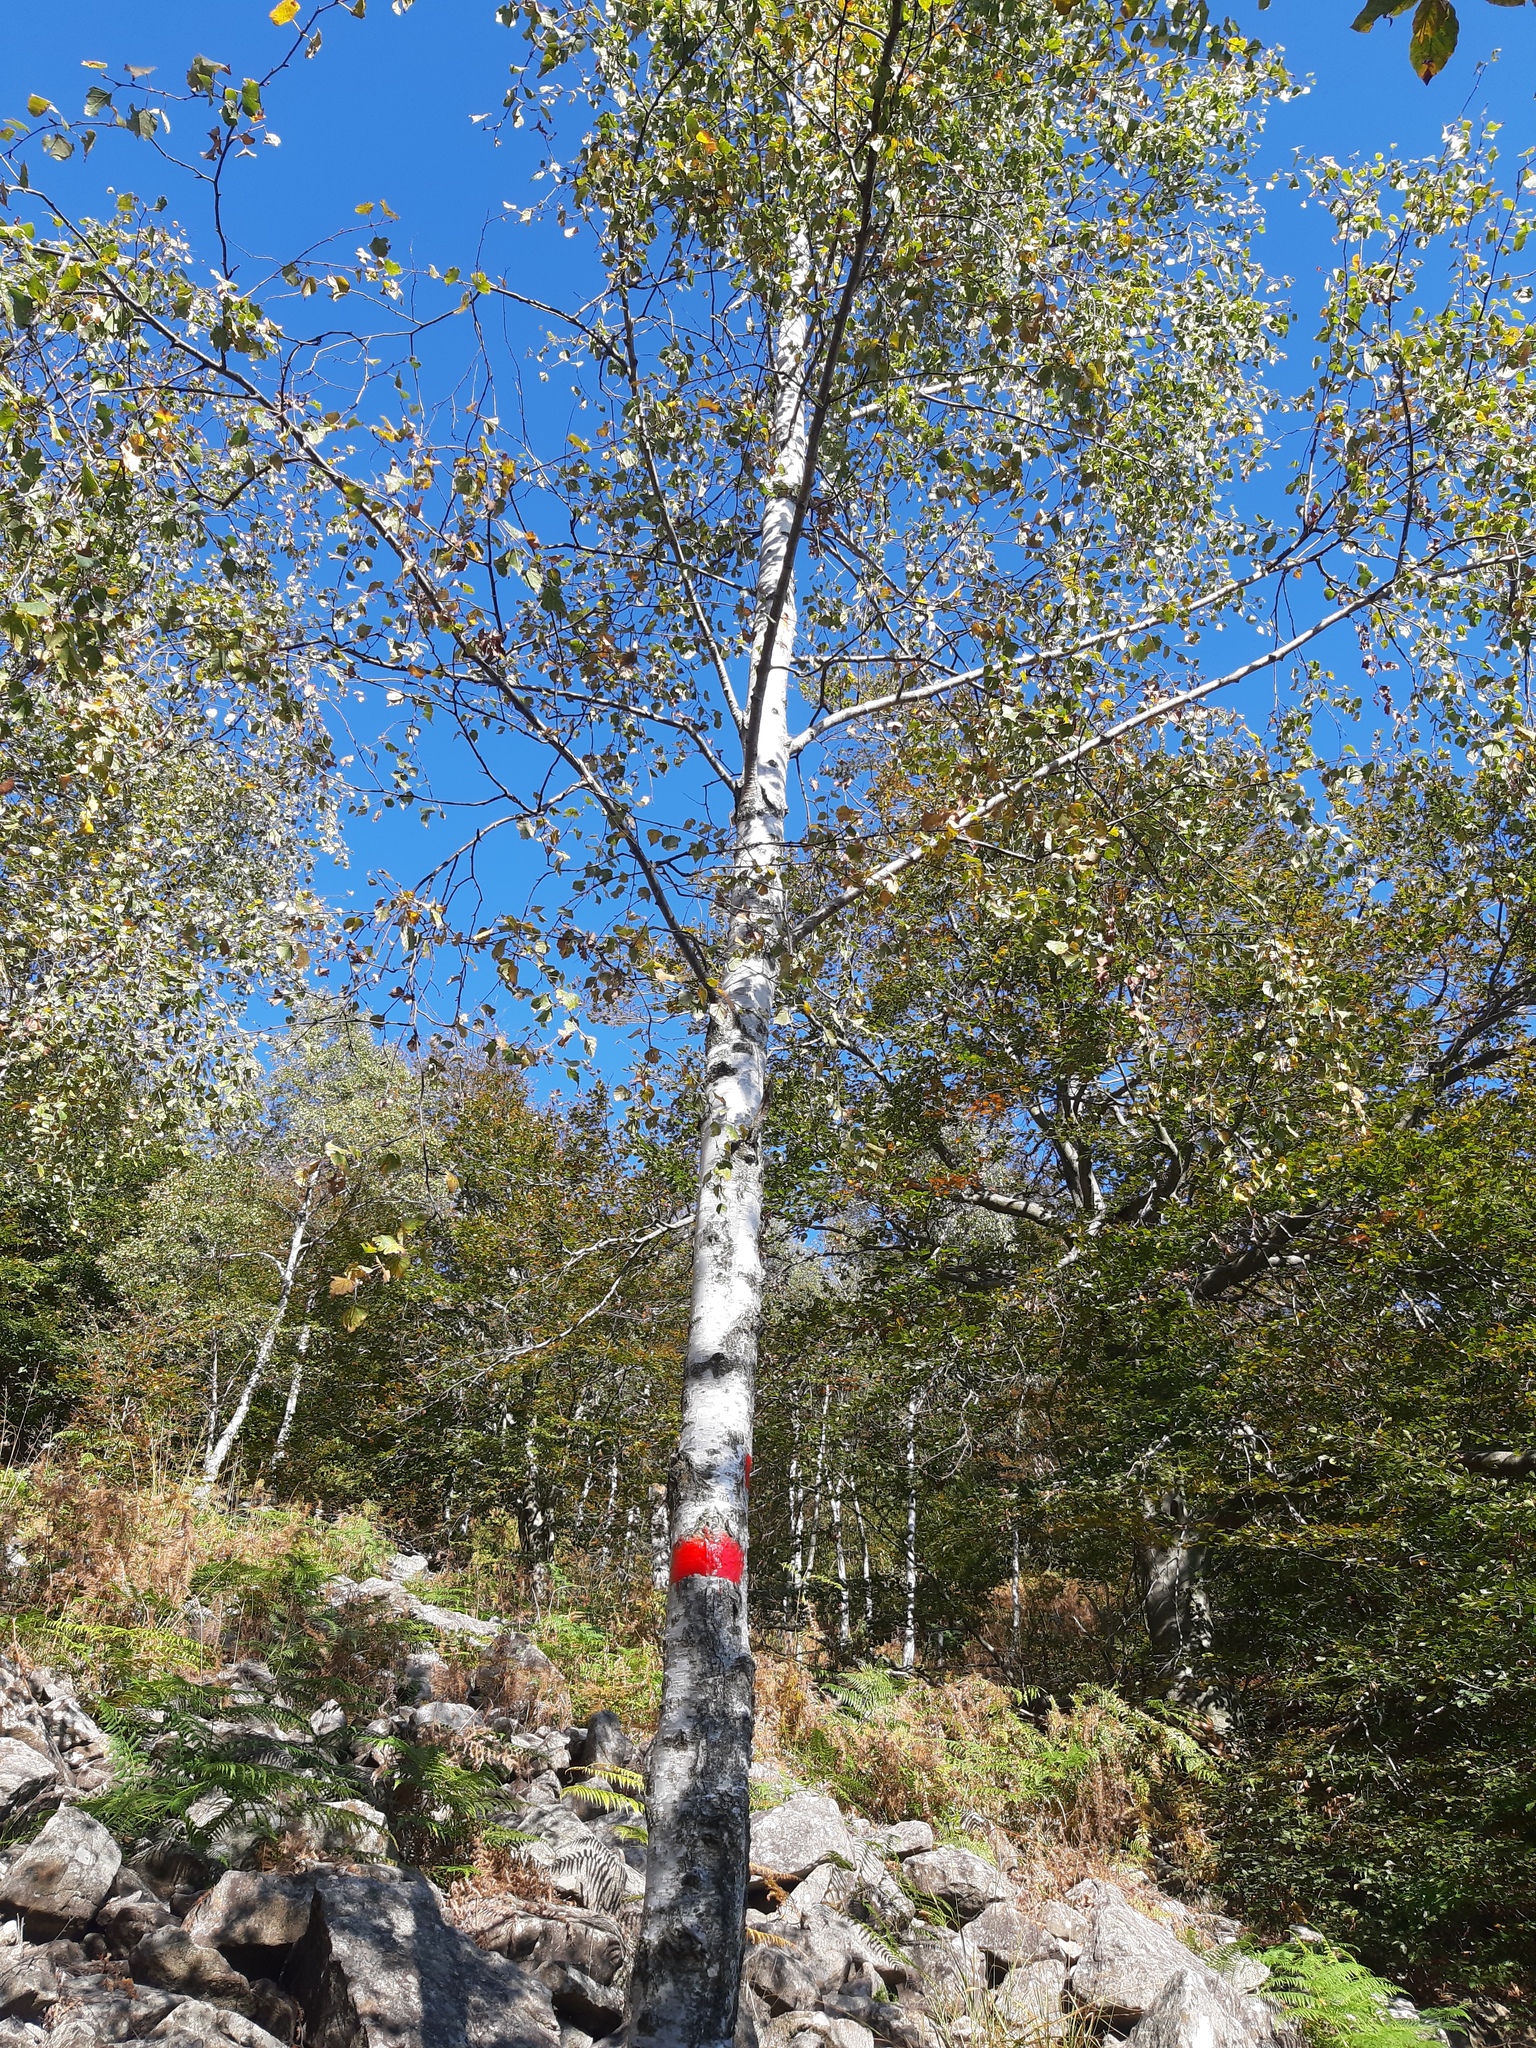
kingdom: Plantae
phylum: Tracheophyta
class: Magnoliopsida
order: Fagales
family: Betulaceae
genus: Betula
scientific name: Betula pendula
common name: Silver birch
